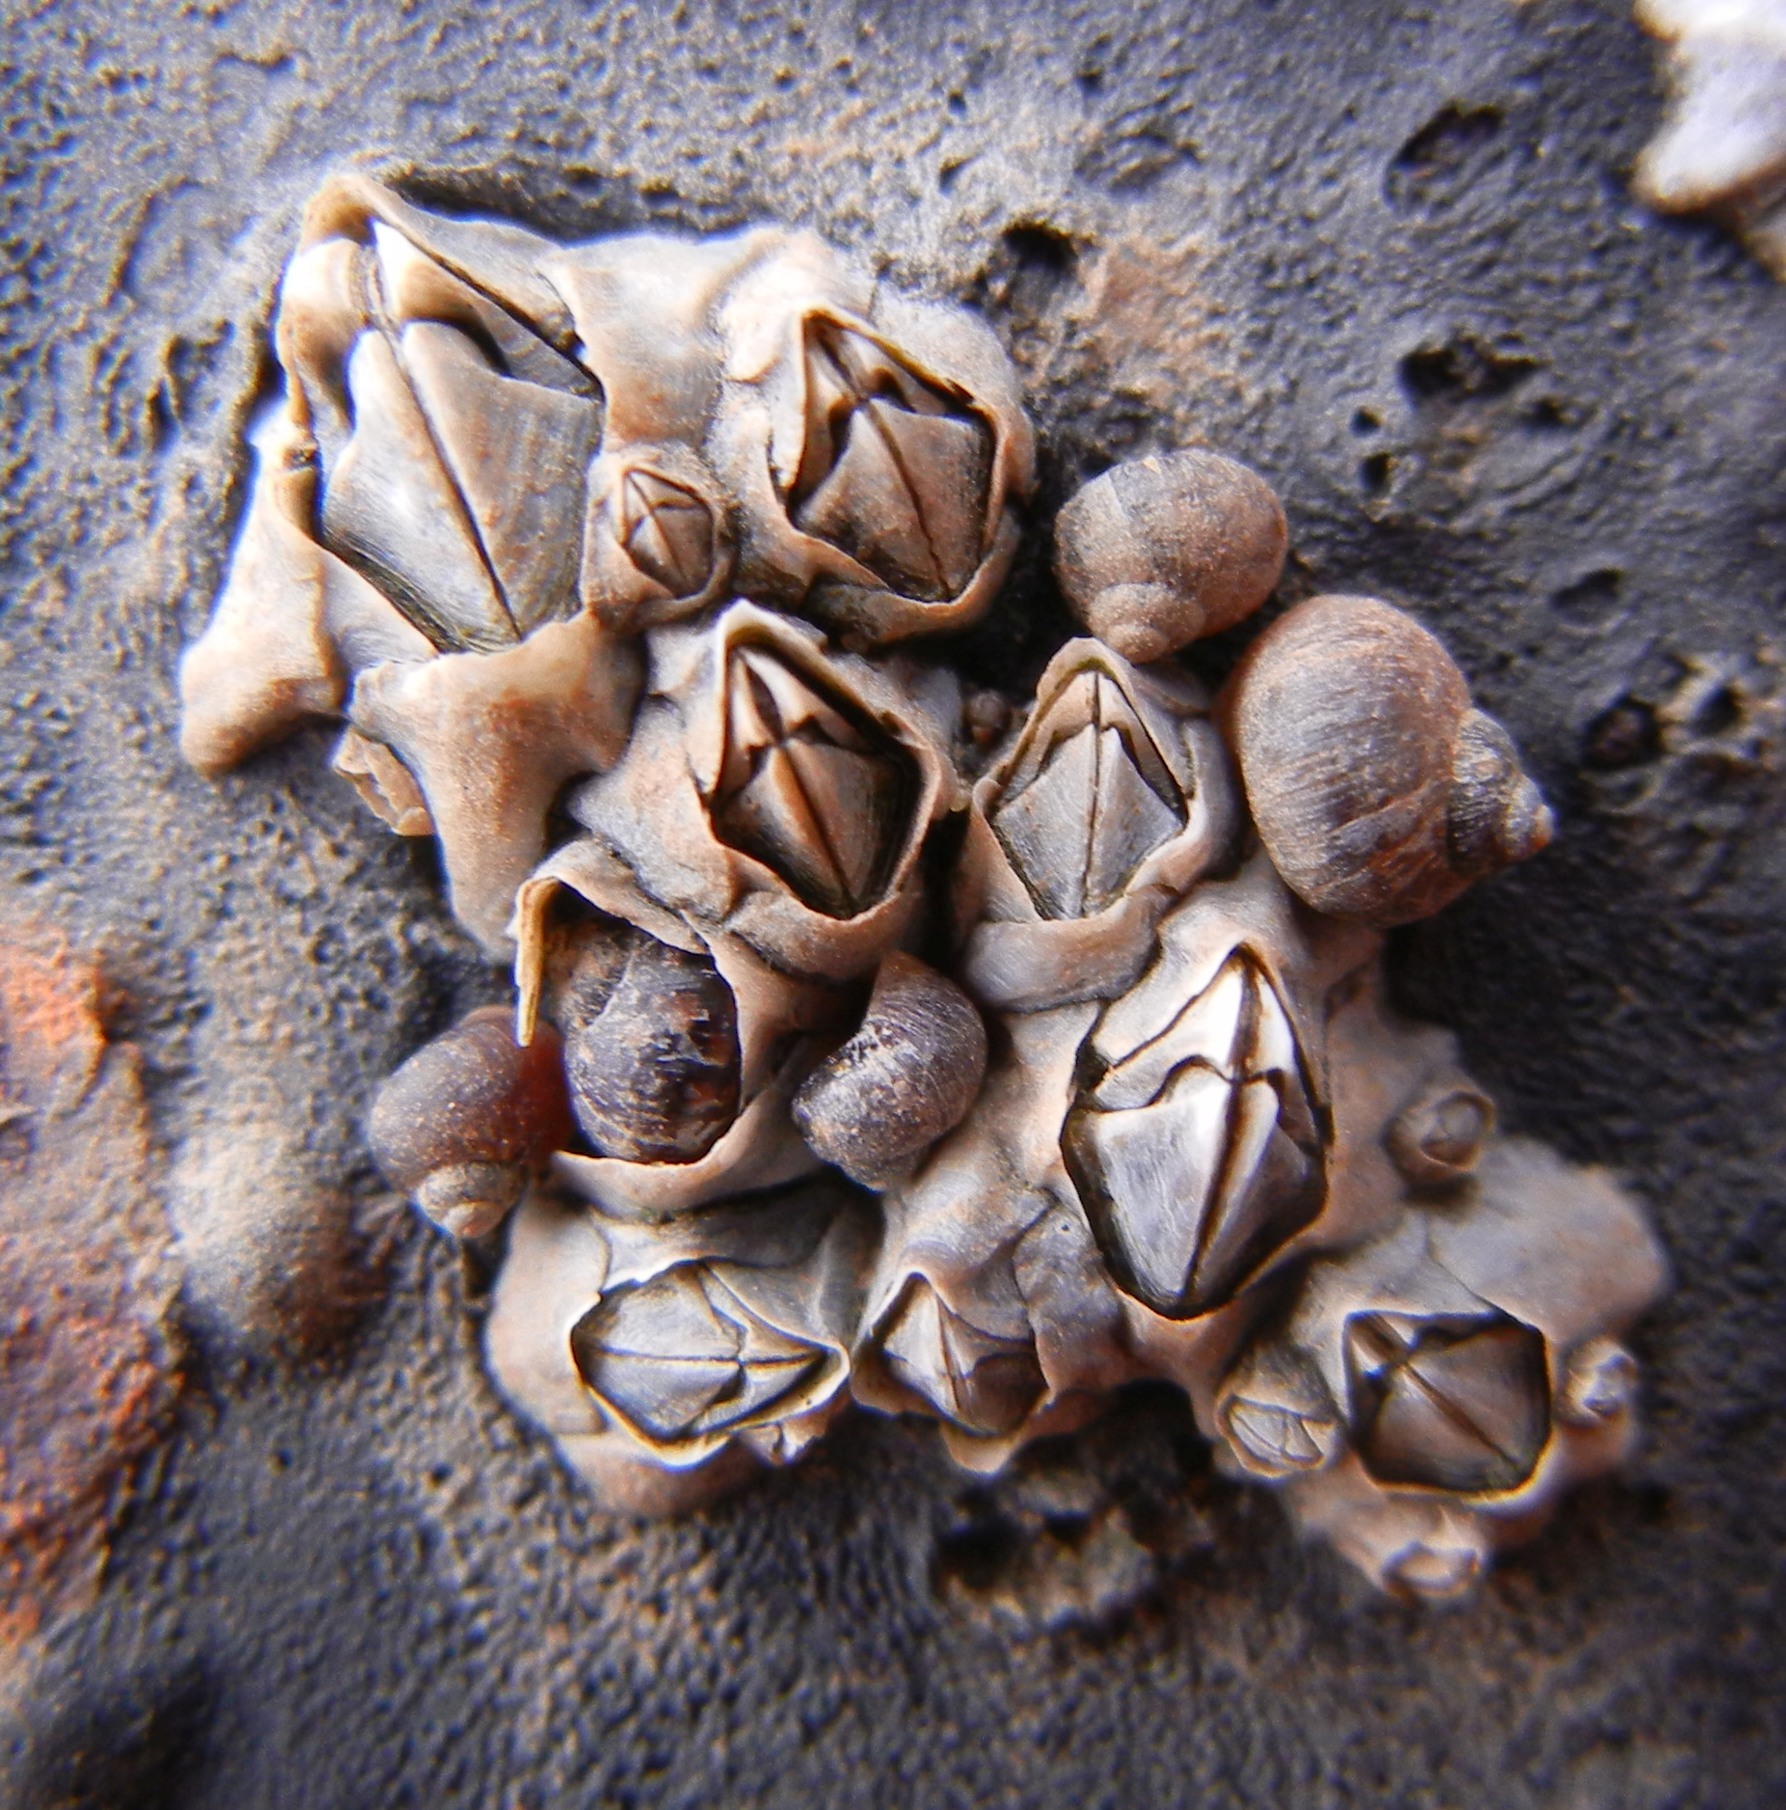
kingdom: Animalia
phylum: Arthropoda
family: Elminiidae
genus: Austrominius
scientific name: Austrominius modestus
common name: Australasian barnacle
